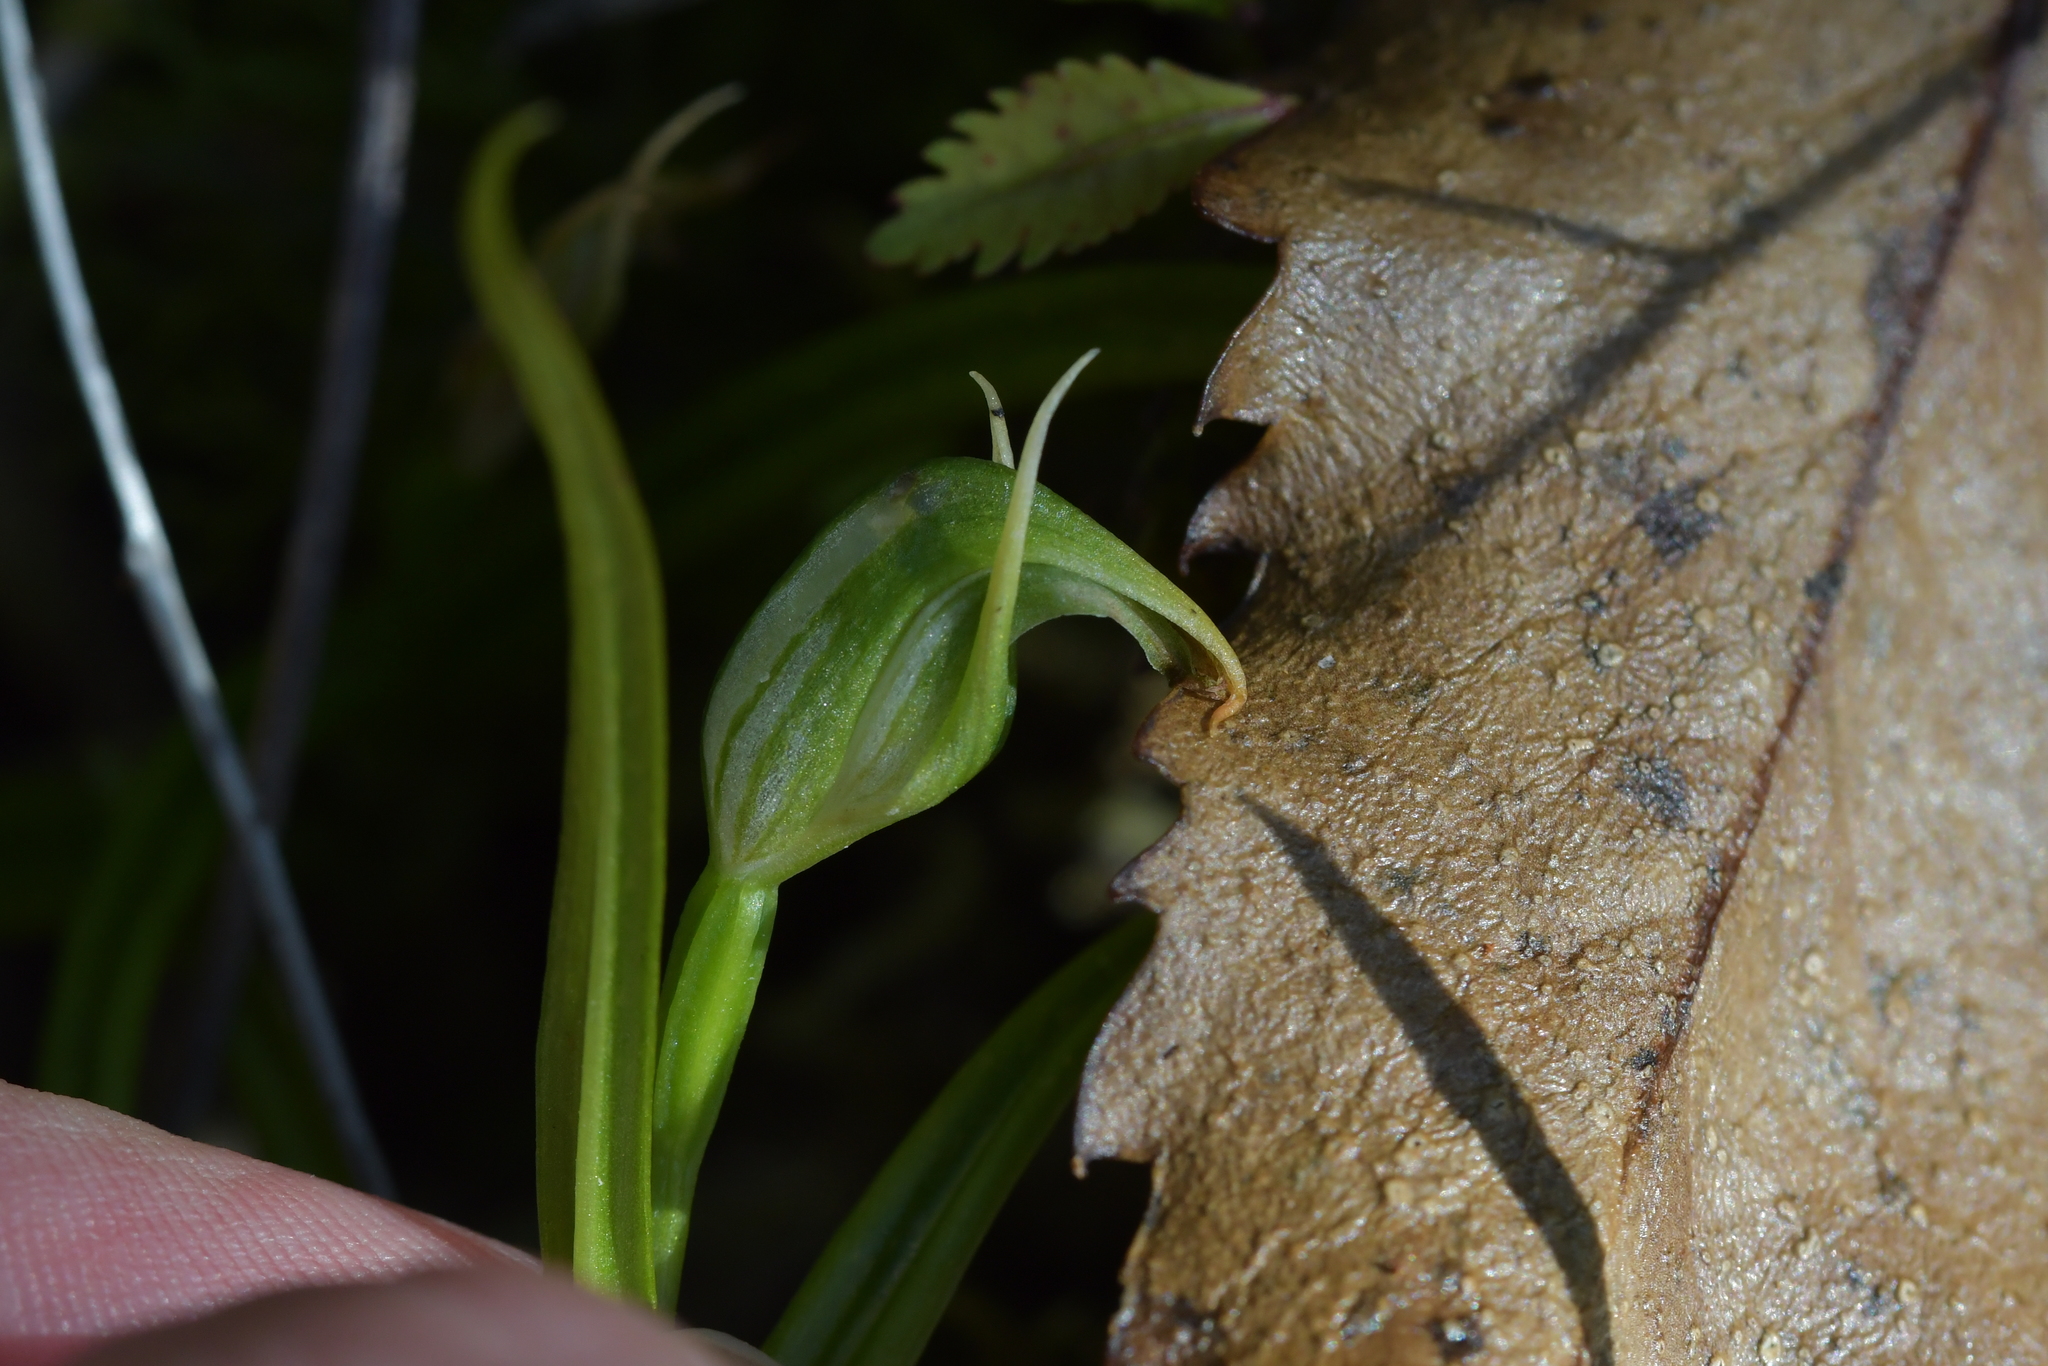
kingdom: Plantae
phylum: Tracheophyta
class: Liliopsida
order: Asparagales
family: Orchidaceae
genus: Pterostylis
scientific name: Pterostylis graminea
